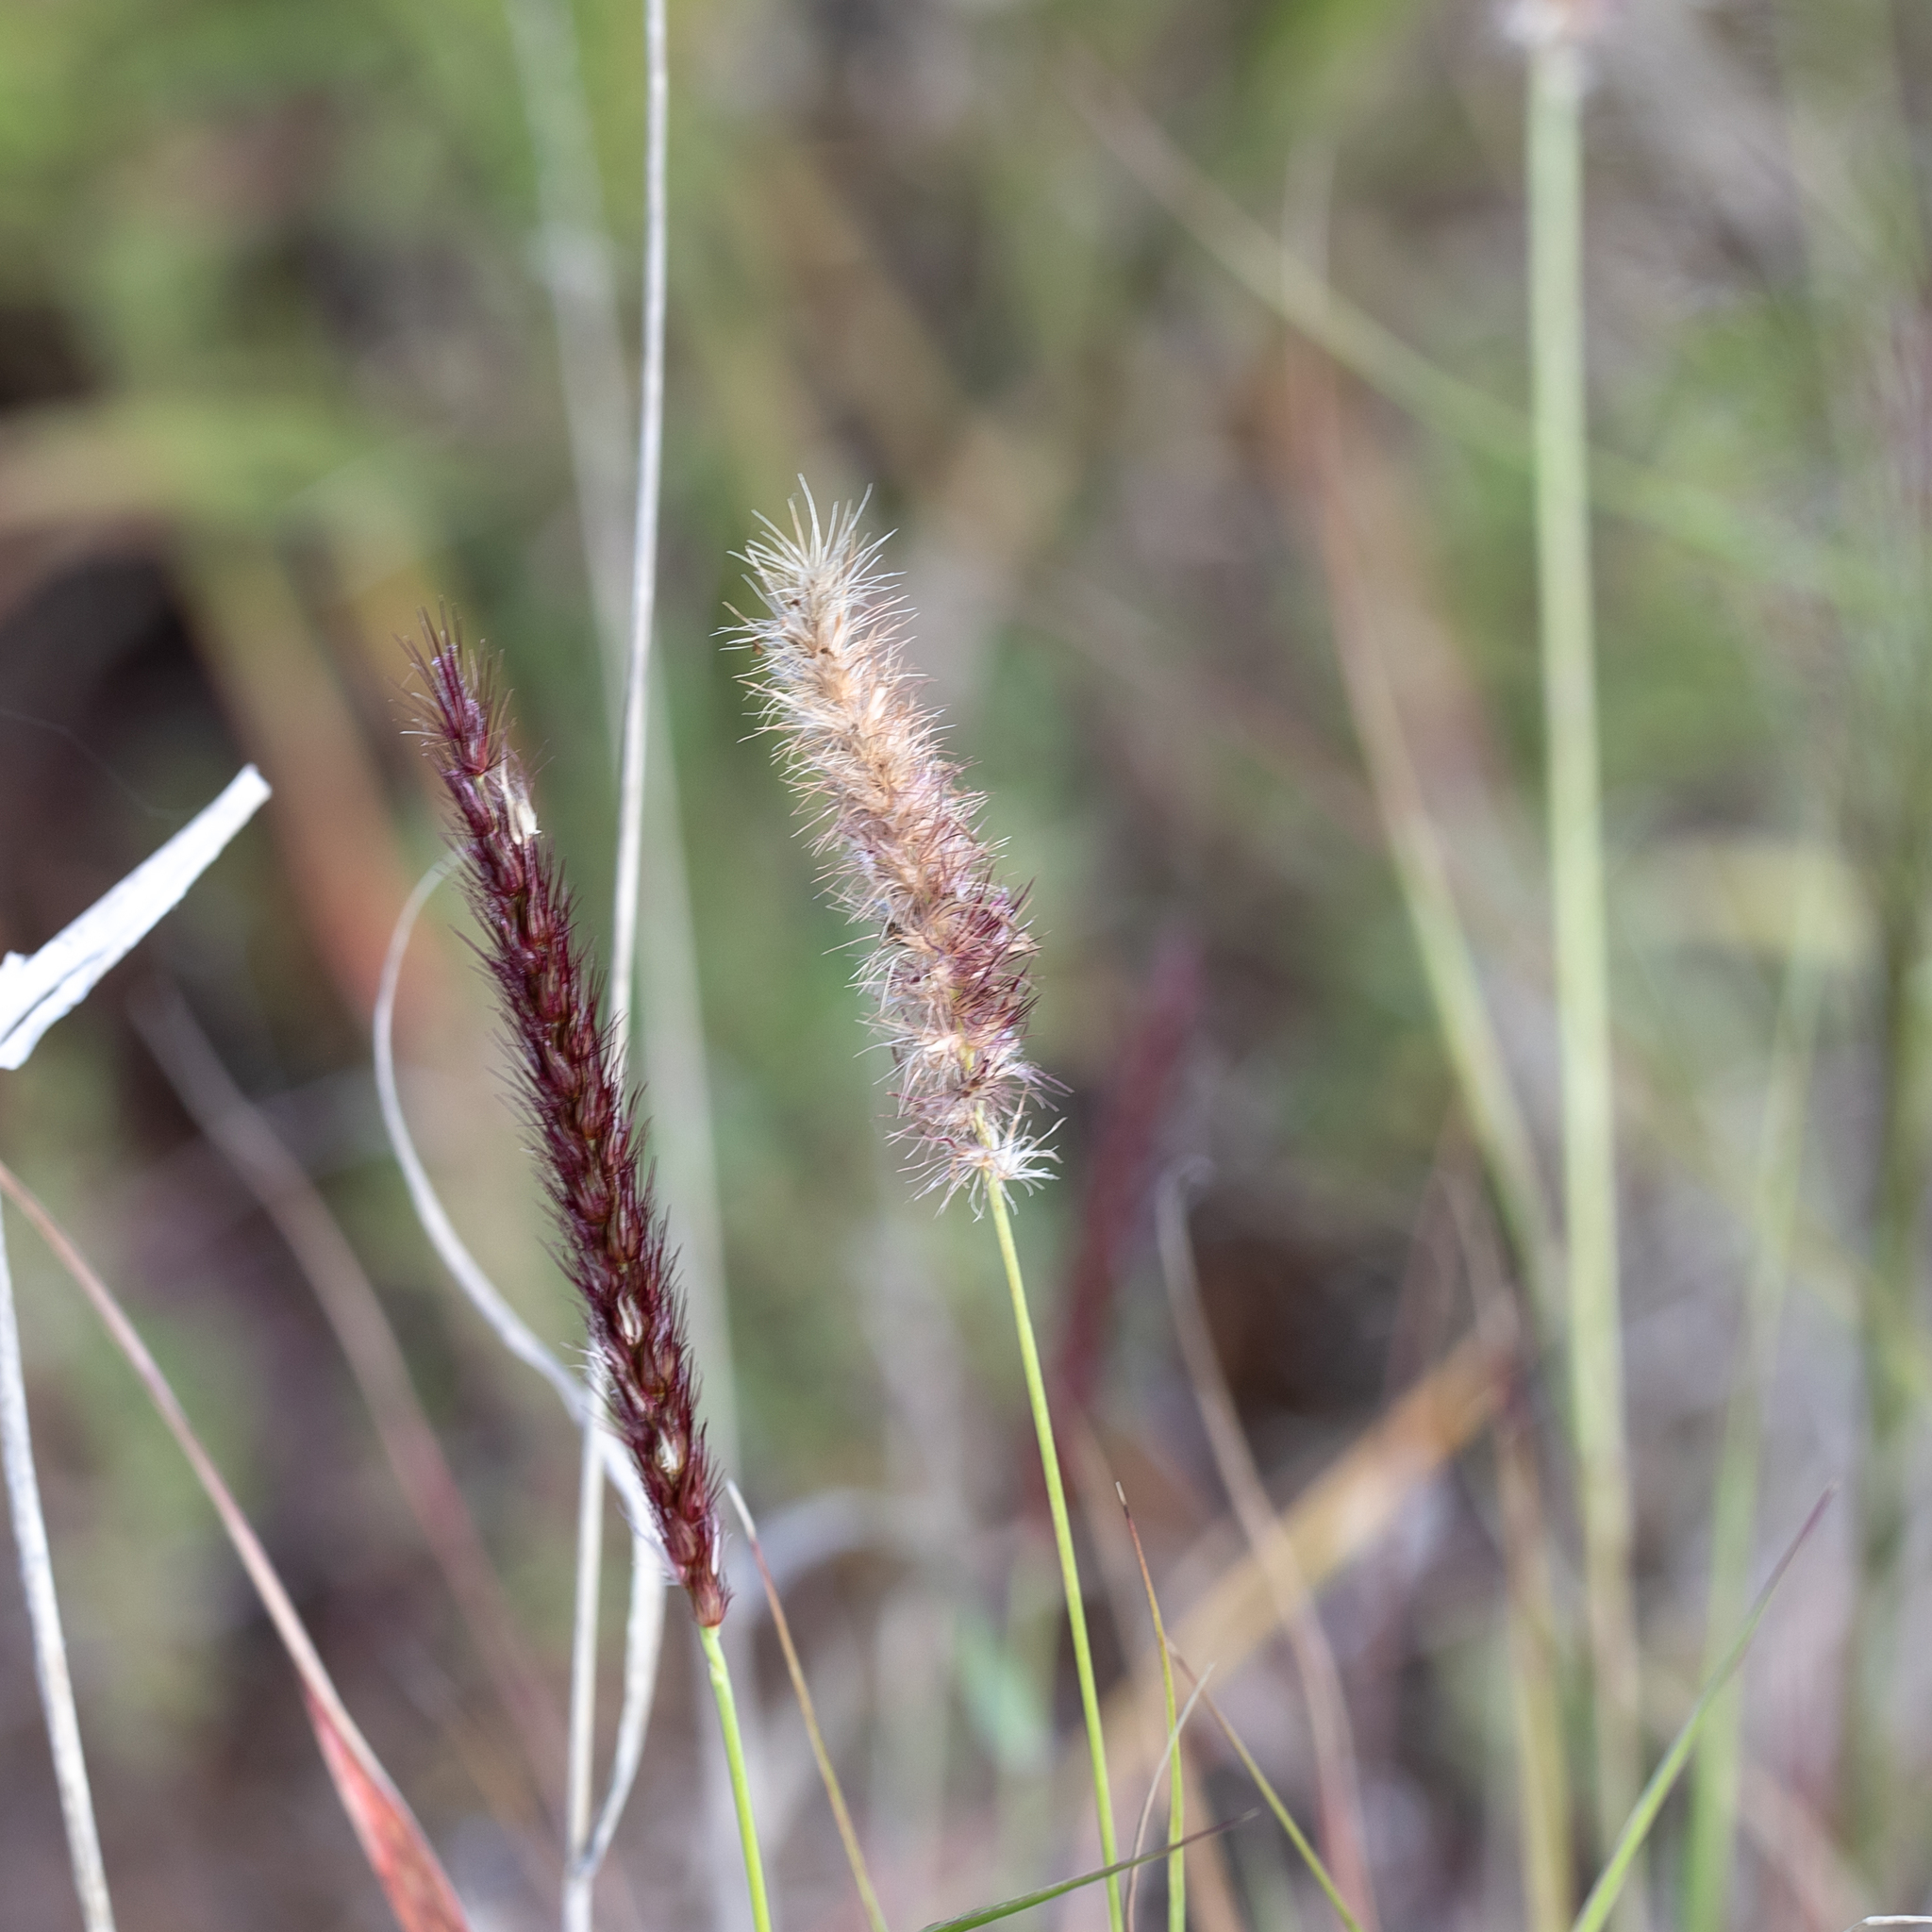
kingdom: Plantae
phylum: Tracheophyta
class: Liliopsida
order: Poales
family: Poaceae
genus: Cenchrus
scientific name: Cenchrus ciliaris
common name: Buffelgrass
